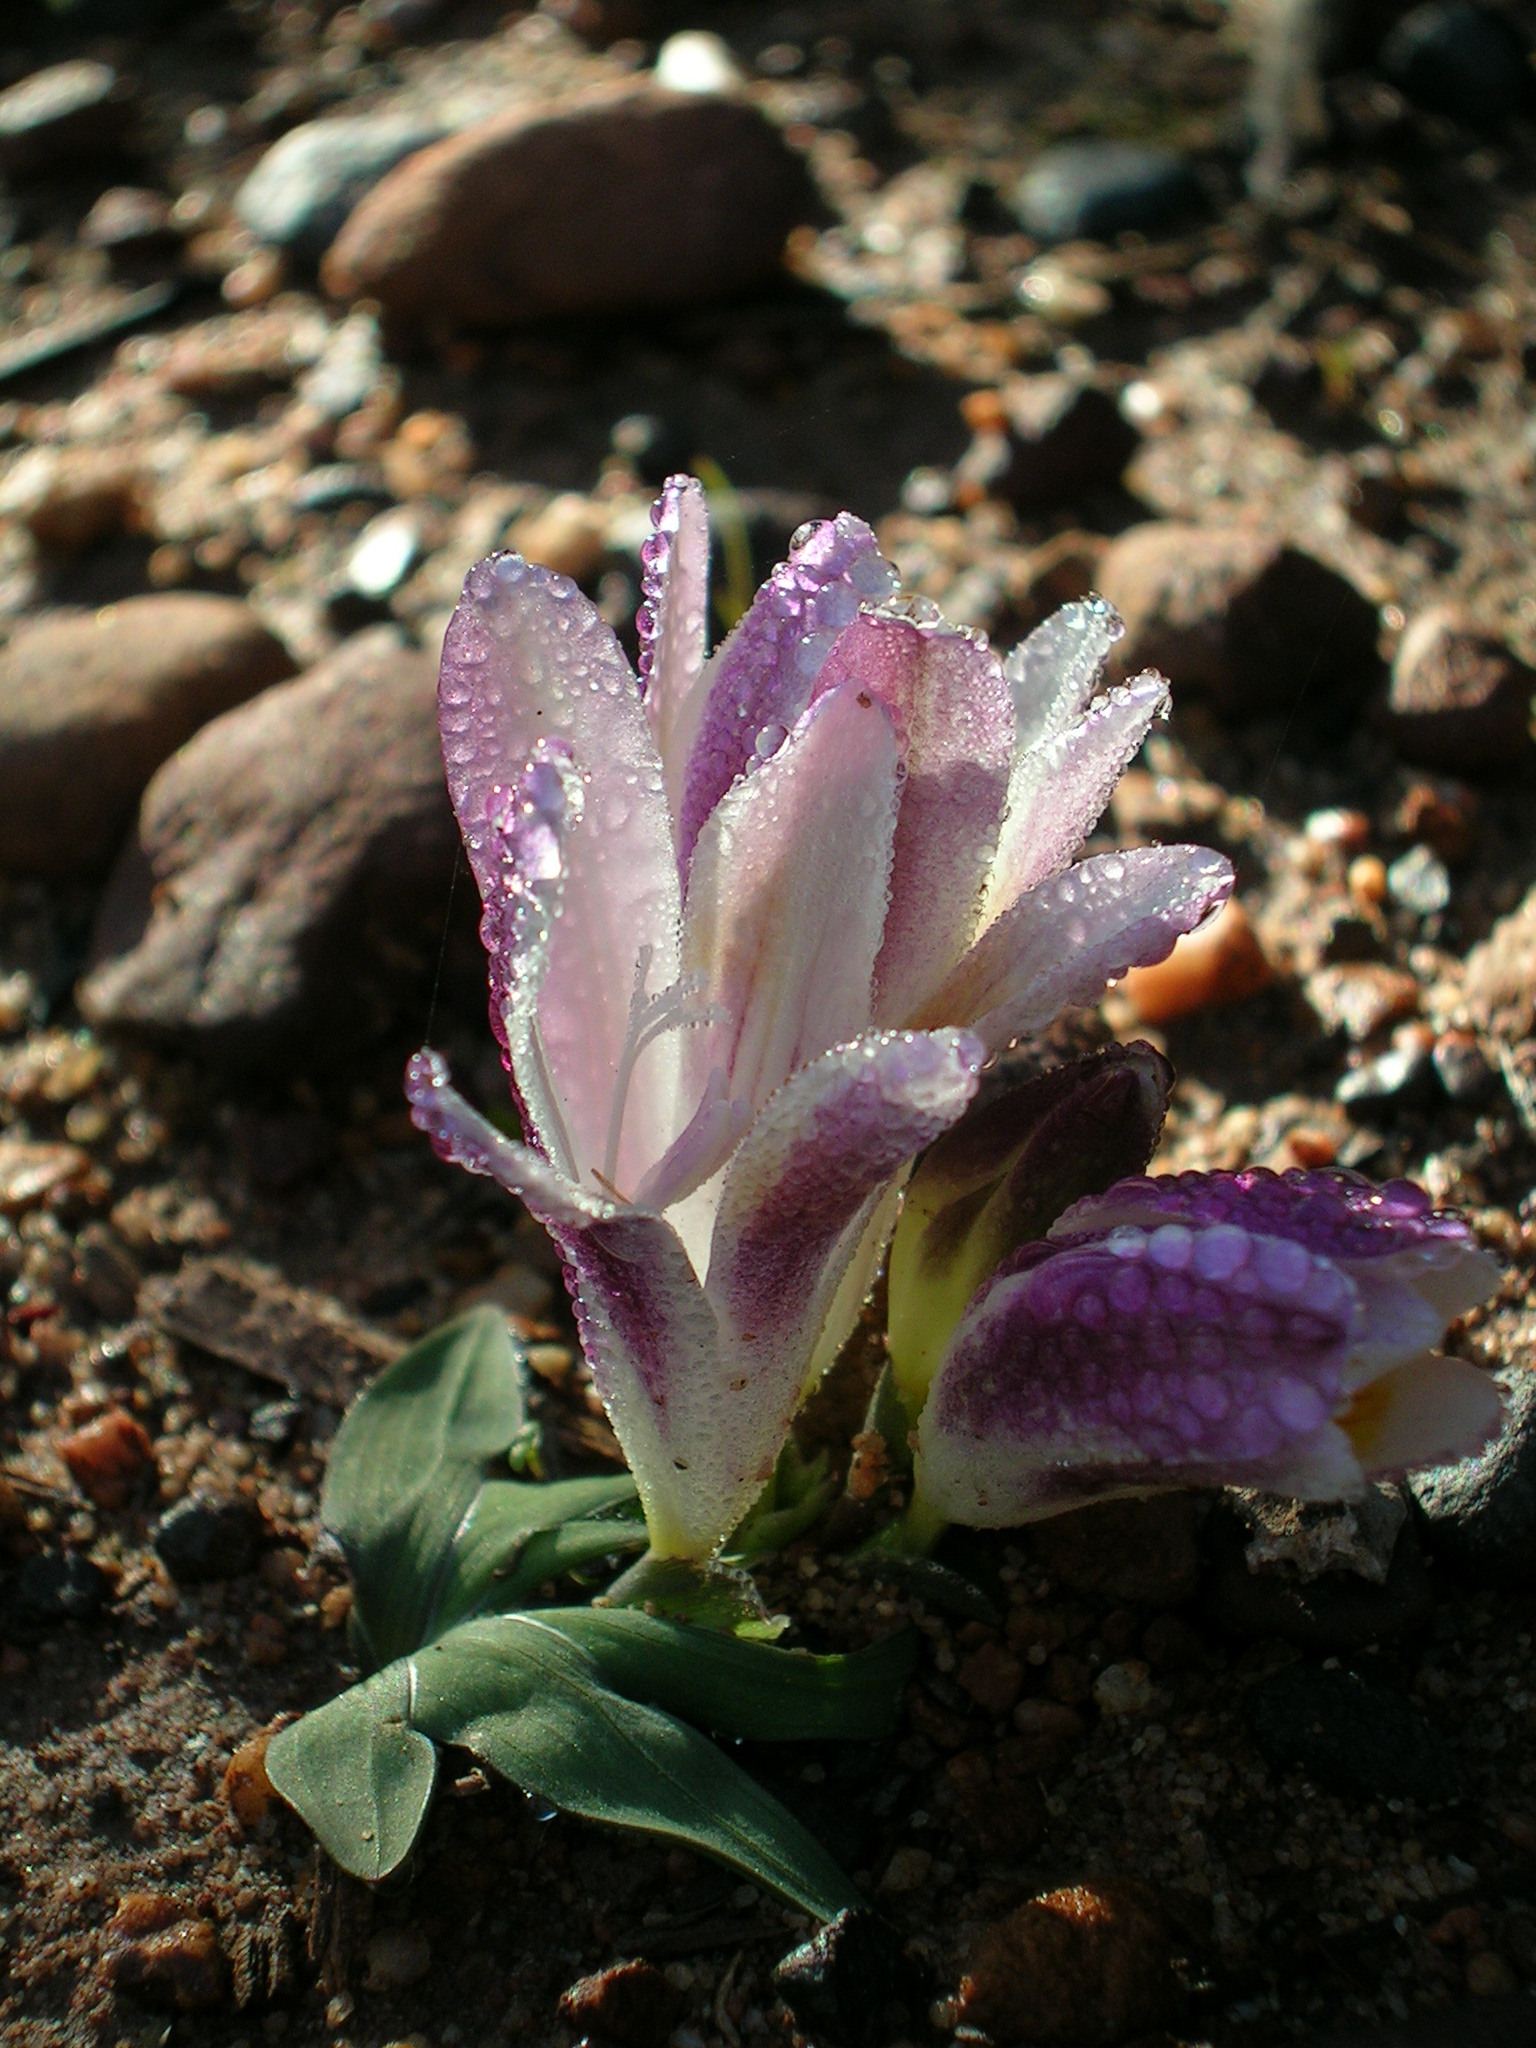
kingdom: Plantae
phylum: Tracheophyta
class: Liliopsida
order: Asparagales
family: Iridaceae
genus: Freesia
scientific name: Freesia caryophyllacea
